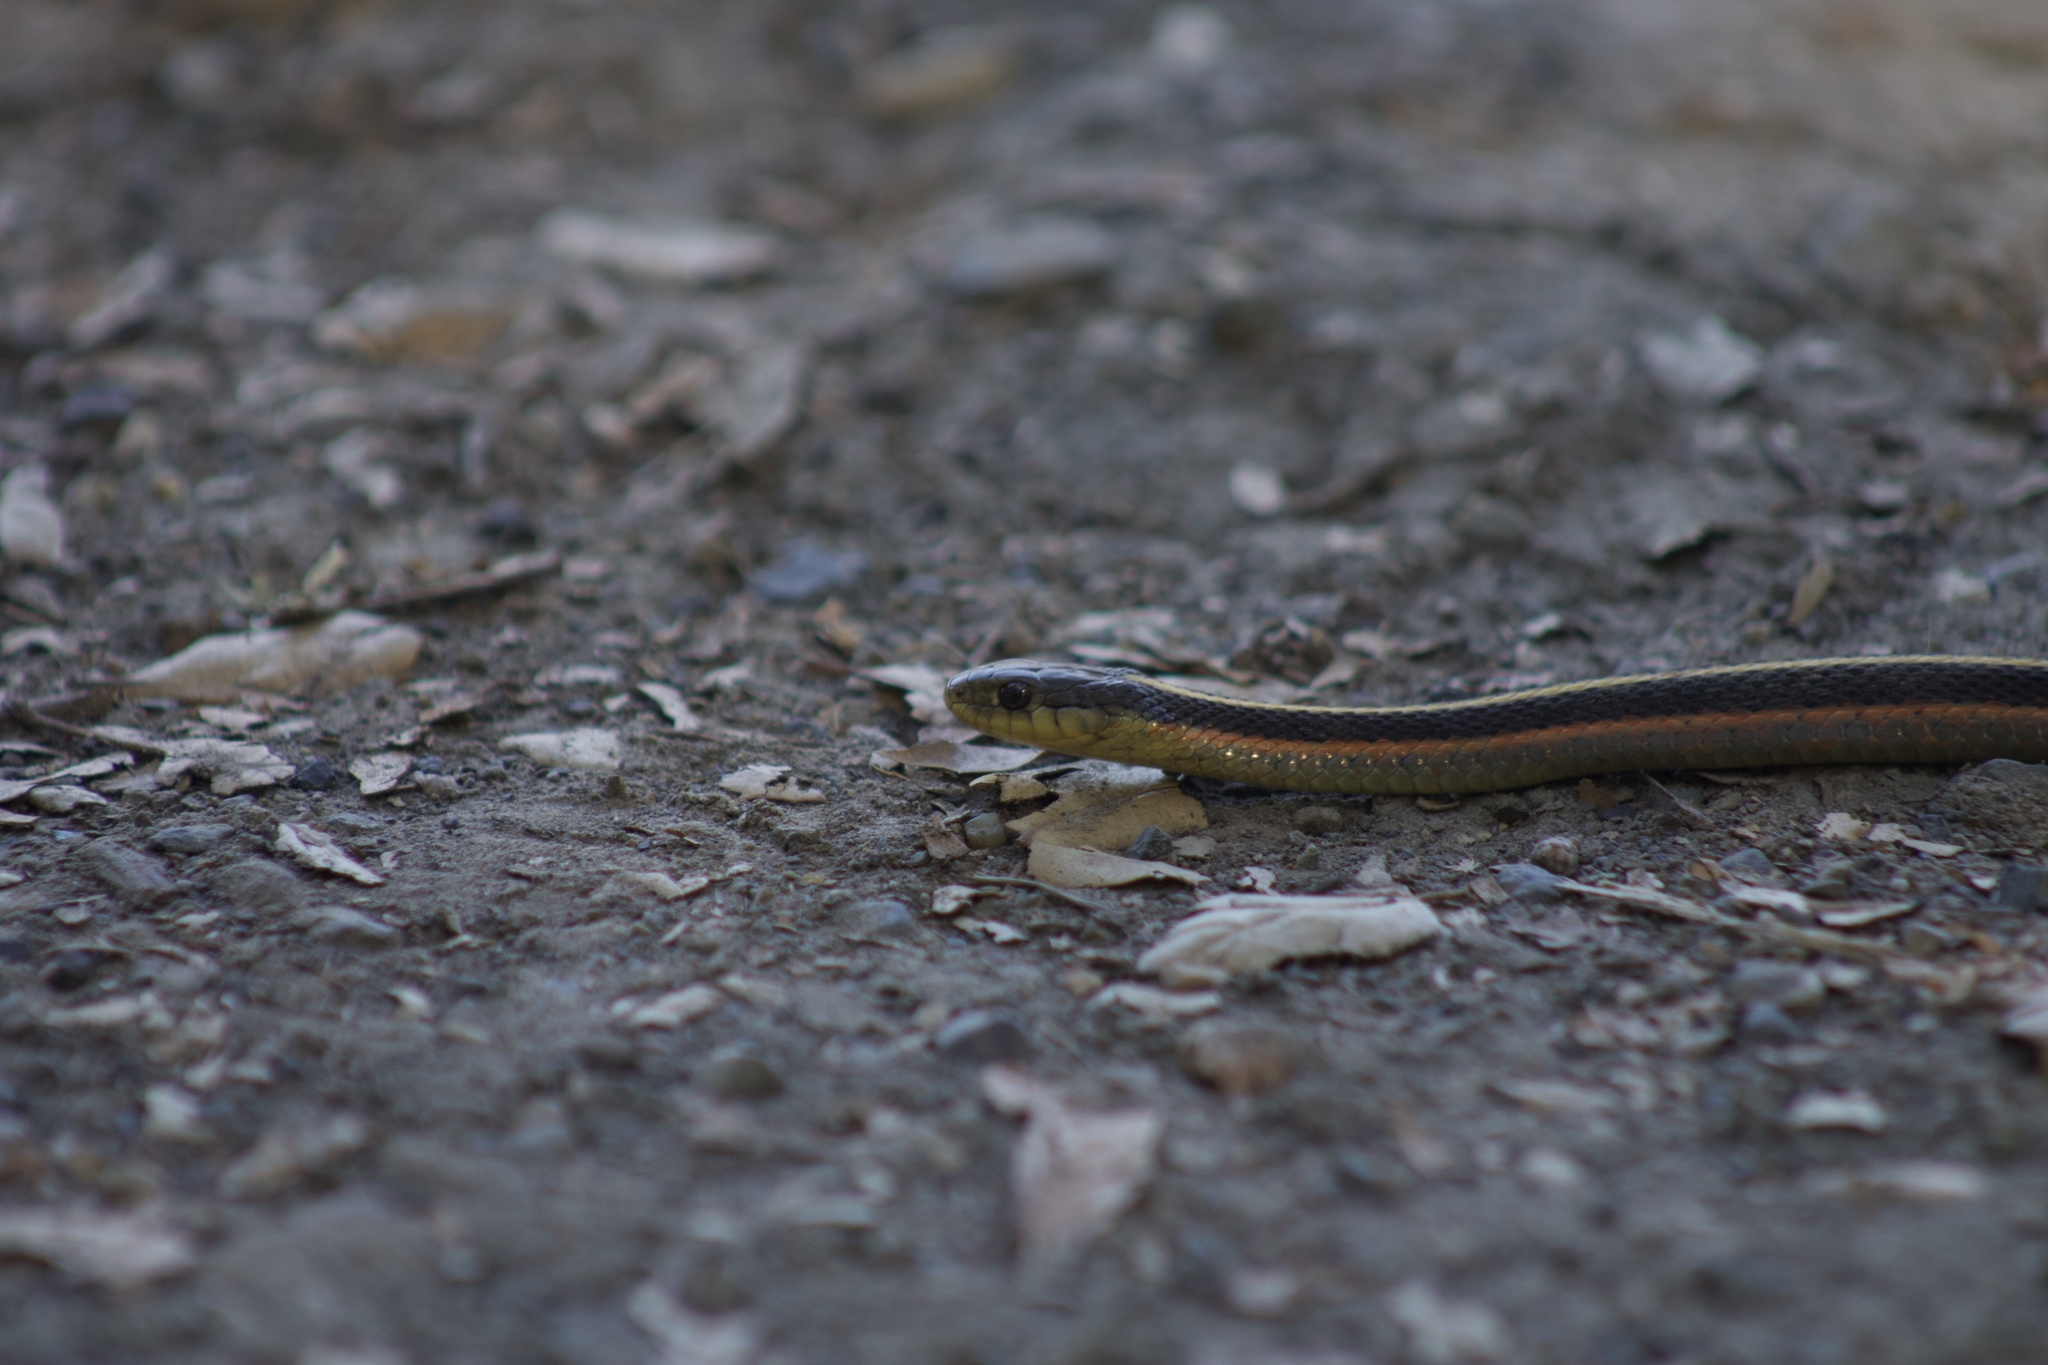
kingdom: Animalia
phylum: Chordata
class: Squamata
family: Colubridae
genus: Thamnophis
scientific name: Thamnophis elegans
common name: Western terrestrial garter snake
